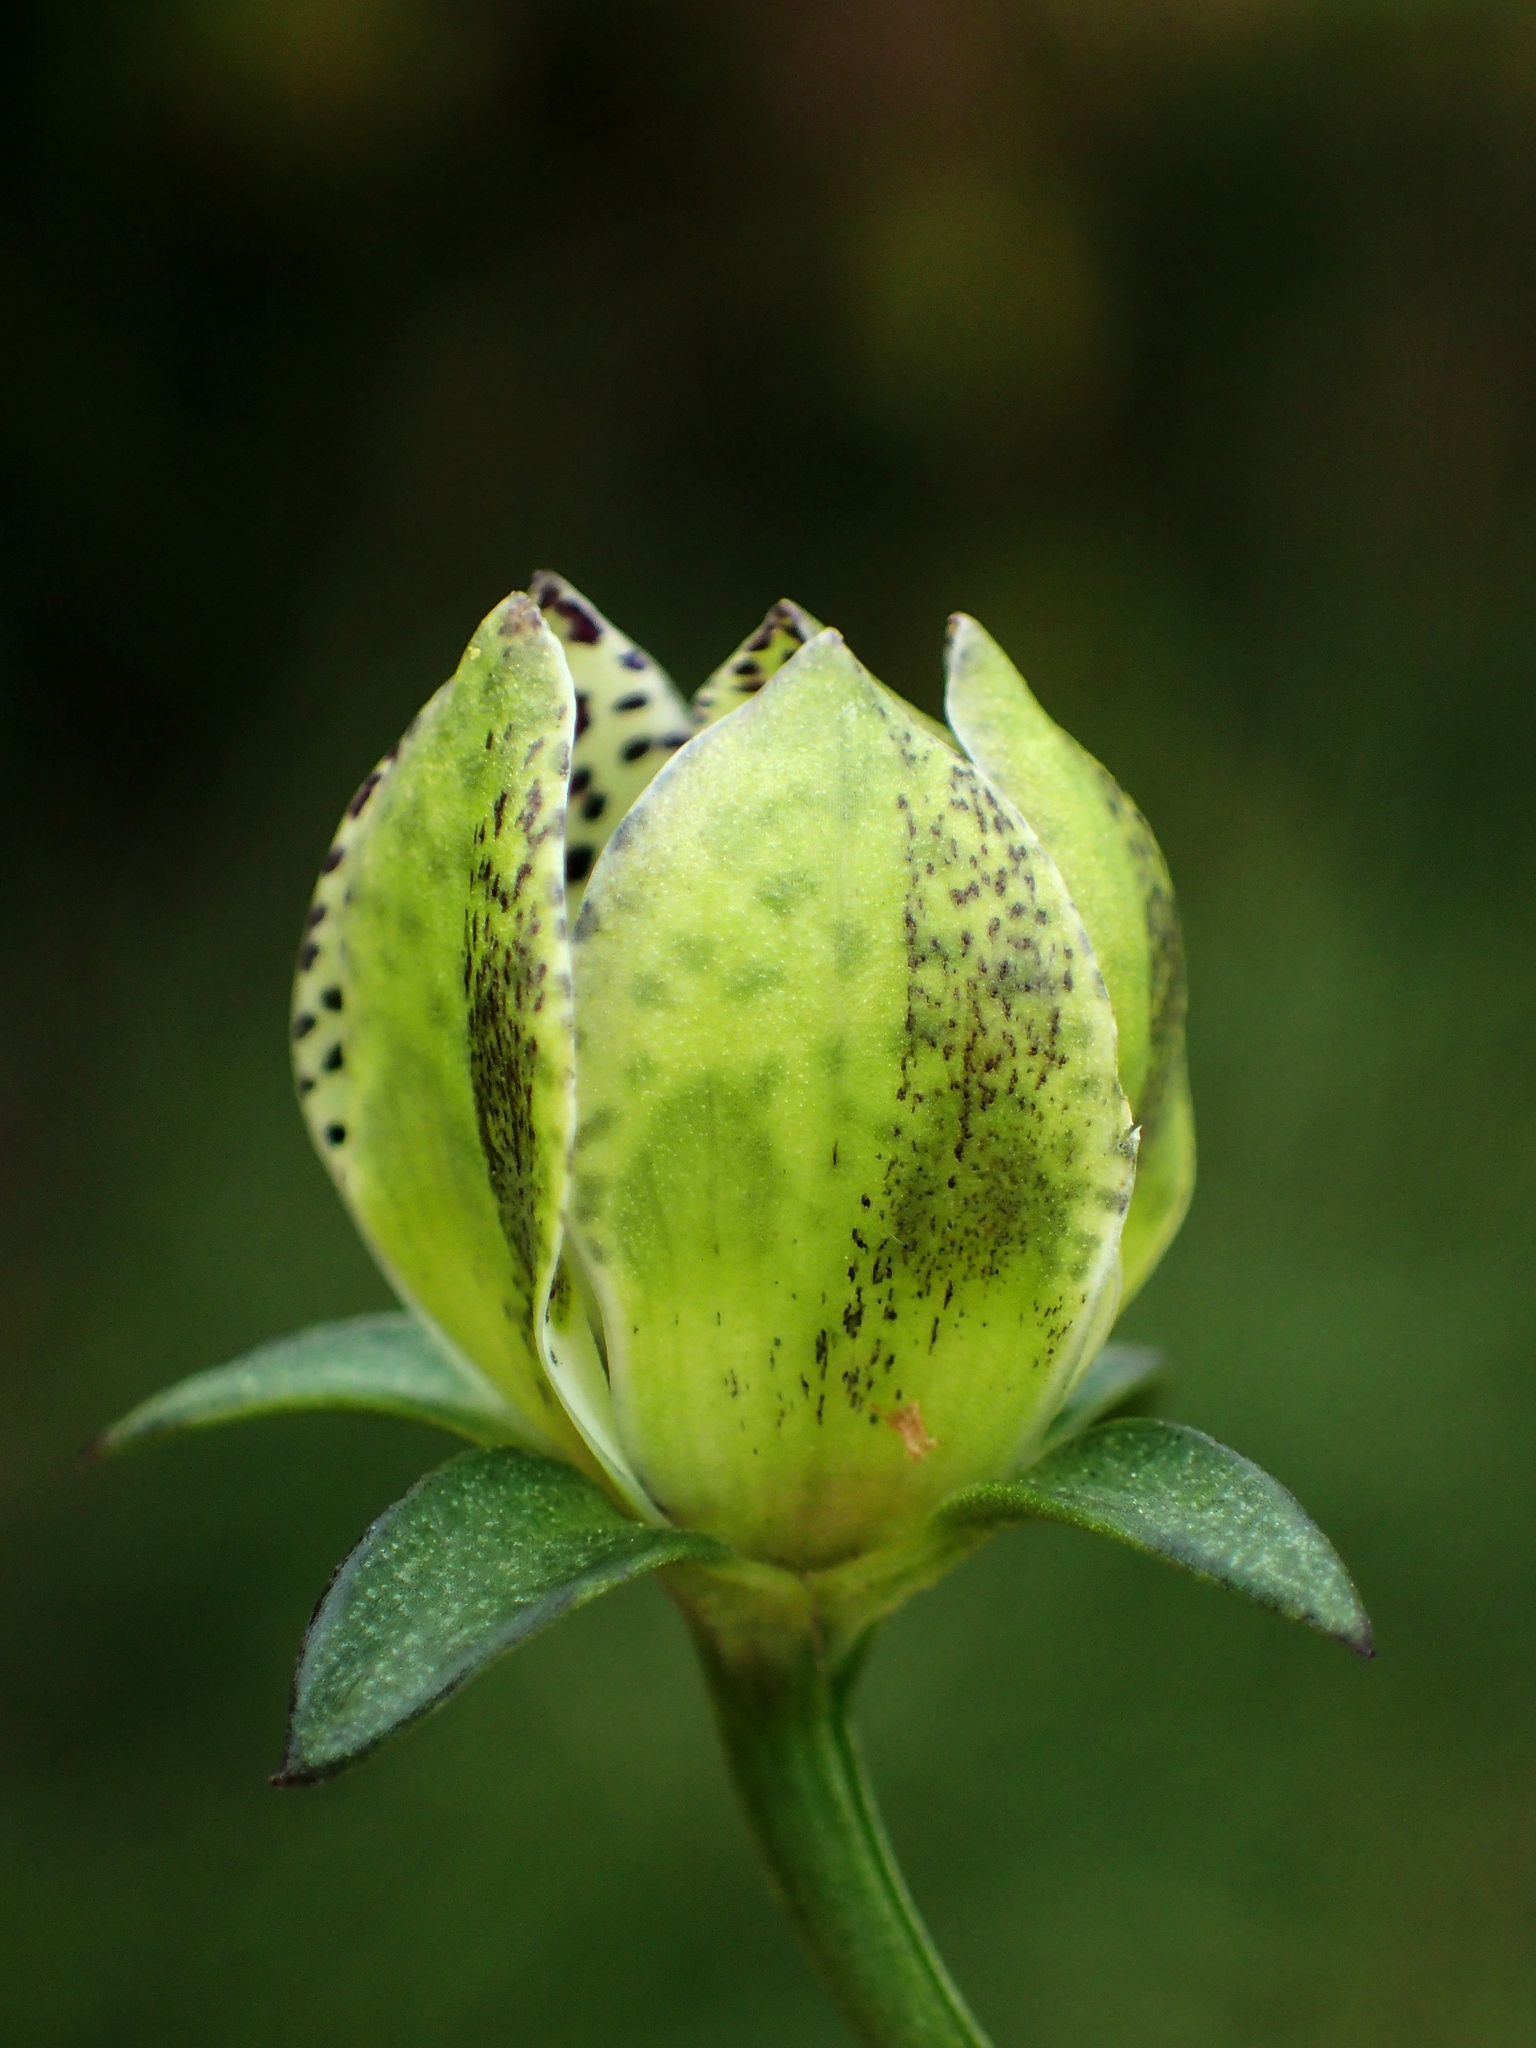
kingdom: Plantae
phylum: Tracheophyta
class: Magnoliopsida
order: Gentianales
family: Gentianaceae
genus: Swertia
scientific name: Swertia tozanensis
